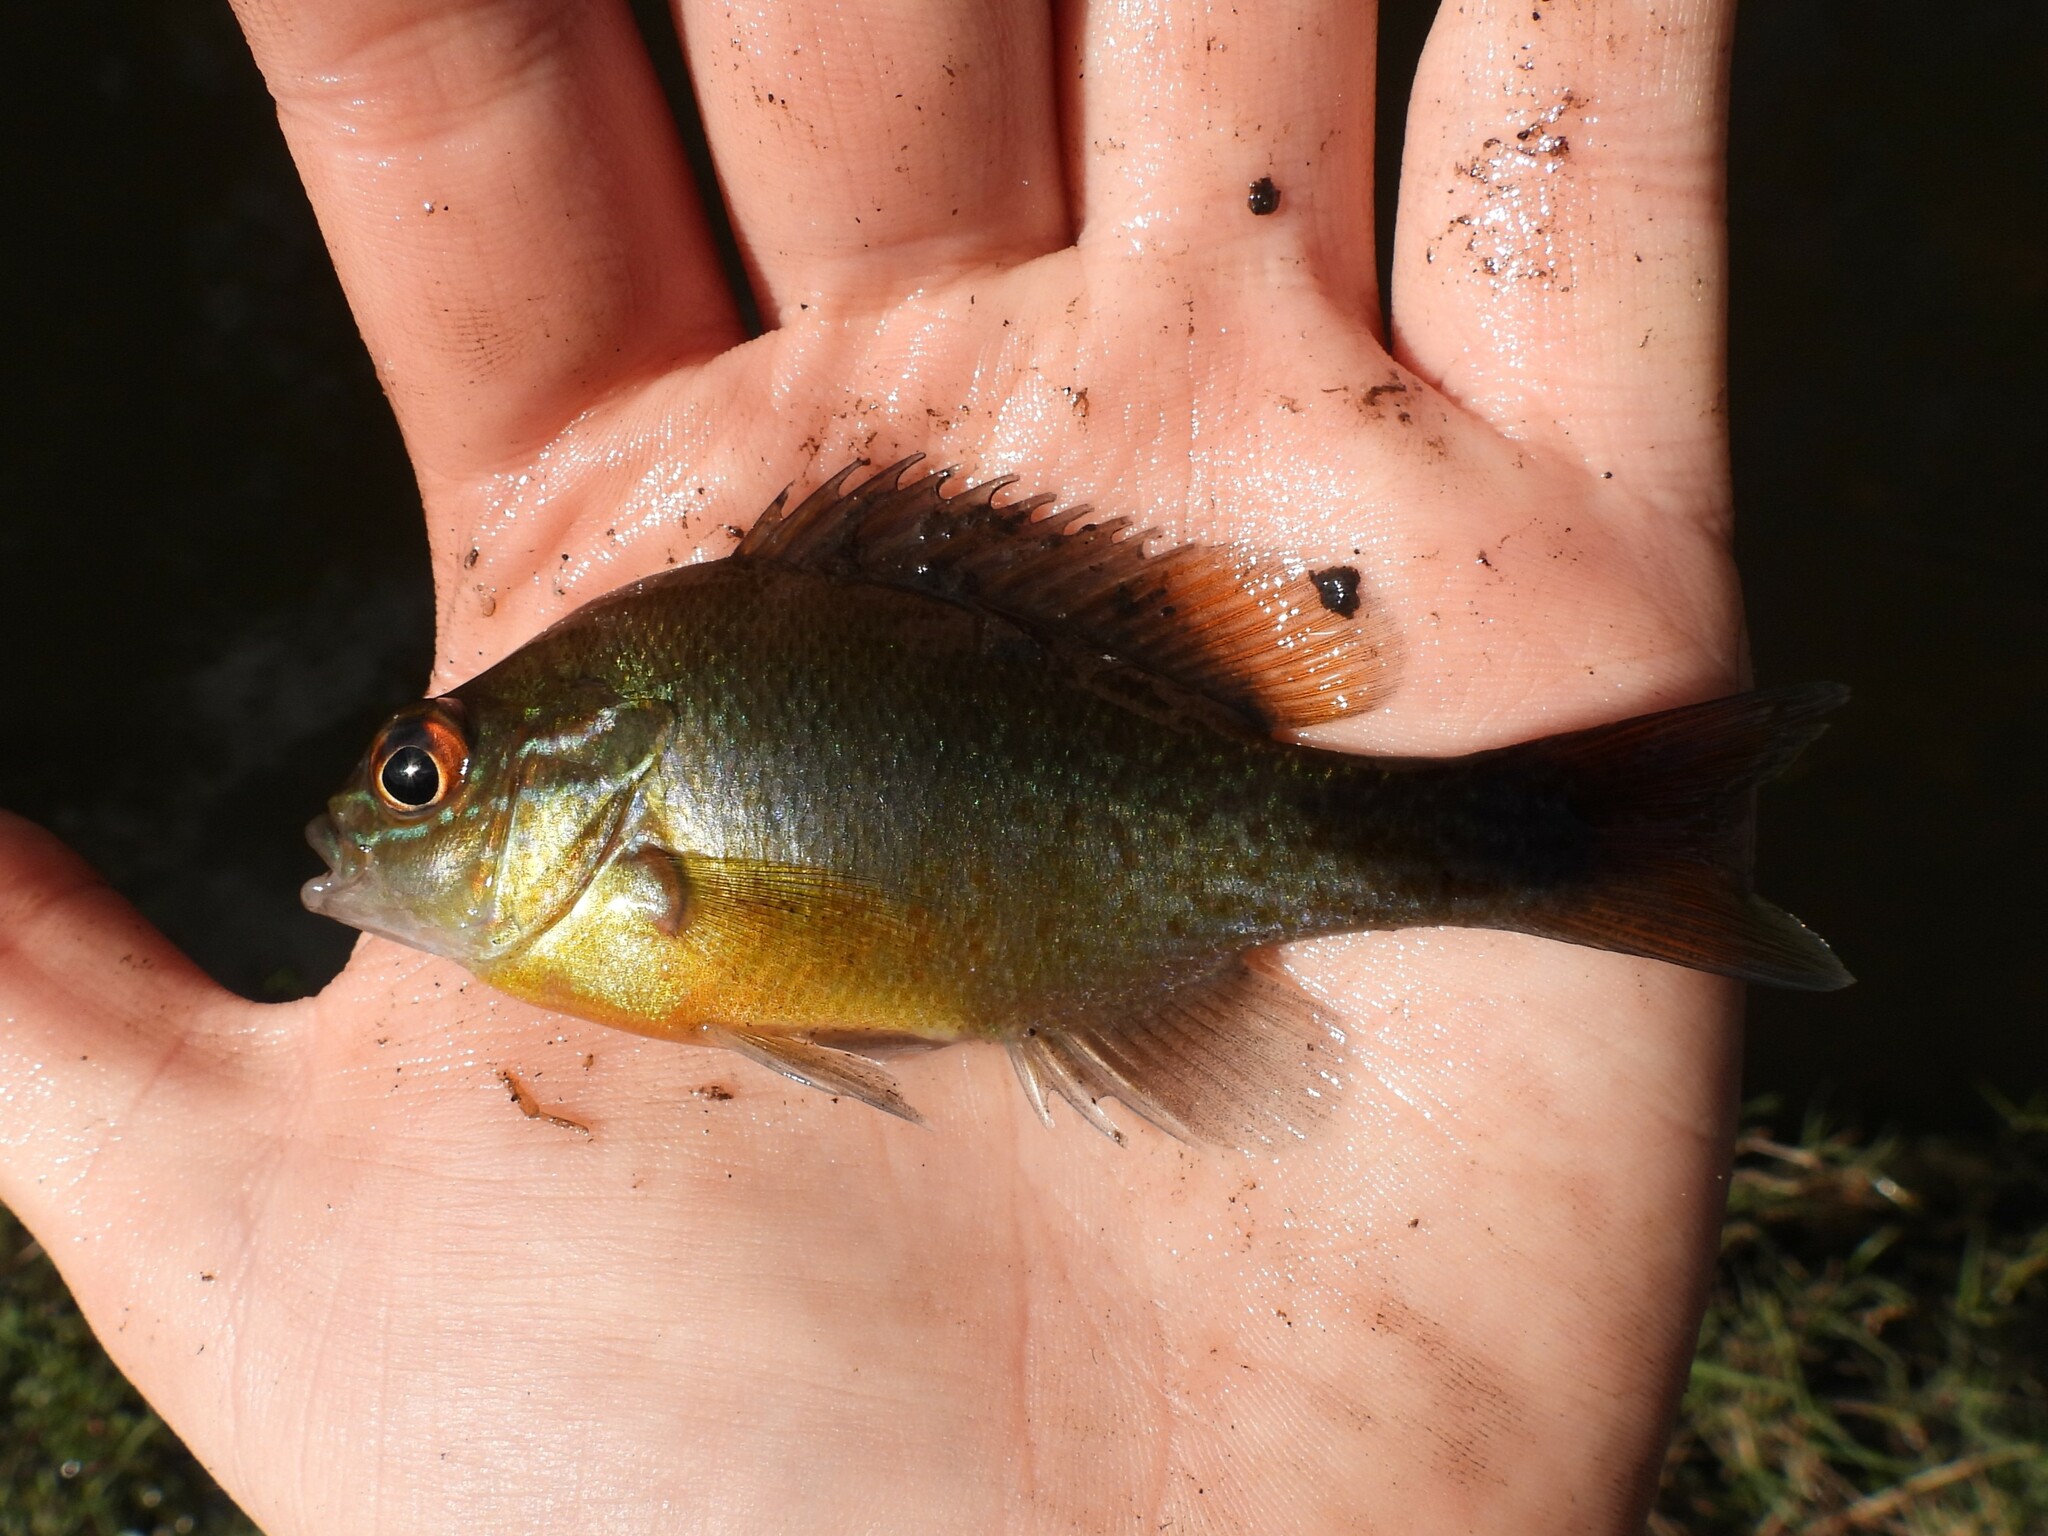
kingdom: Animalia
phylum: Chordata
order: Perciformes
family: Centrarchidae
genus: Lepomis
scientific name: Lepomis auritus
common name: Redbreast sunfish
